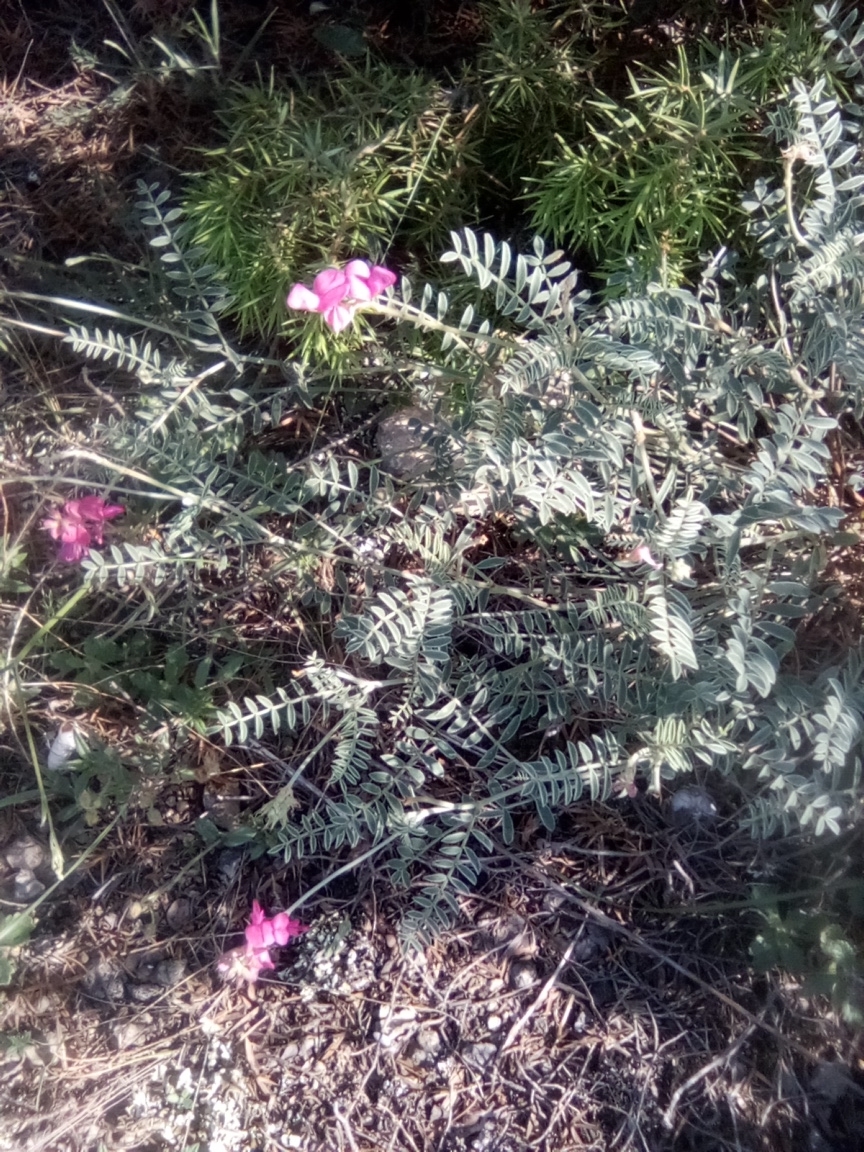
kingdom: Plantae
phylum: Tracheophyta
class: Magnoliopsida
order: Fabales
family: Fabaceae
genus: Hedysarum
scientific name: Hedysarum tauricum
